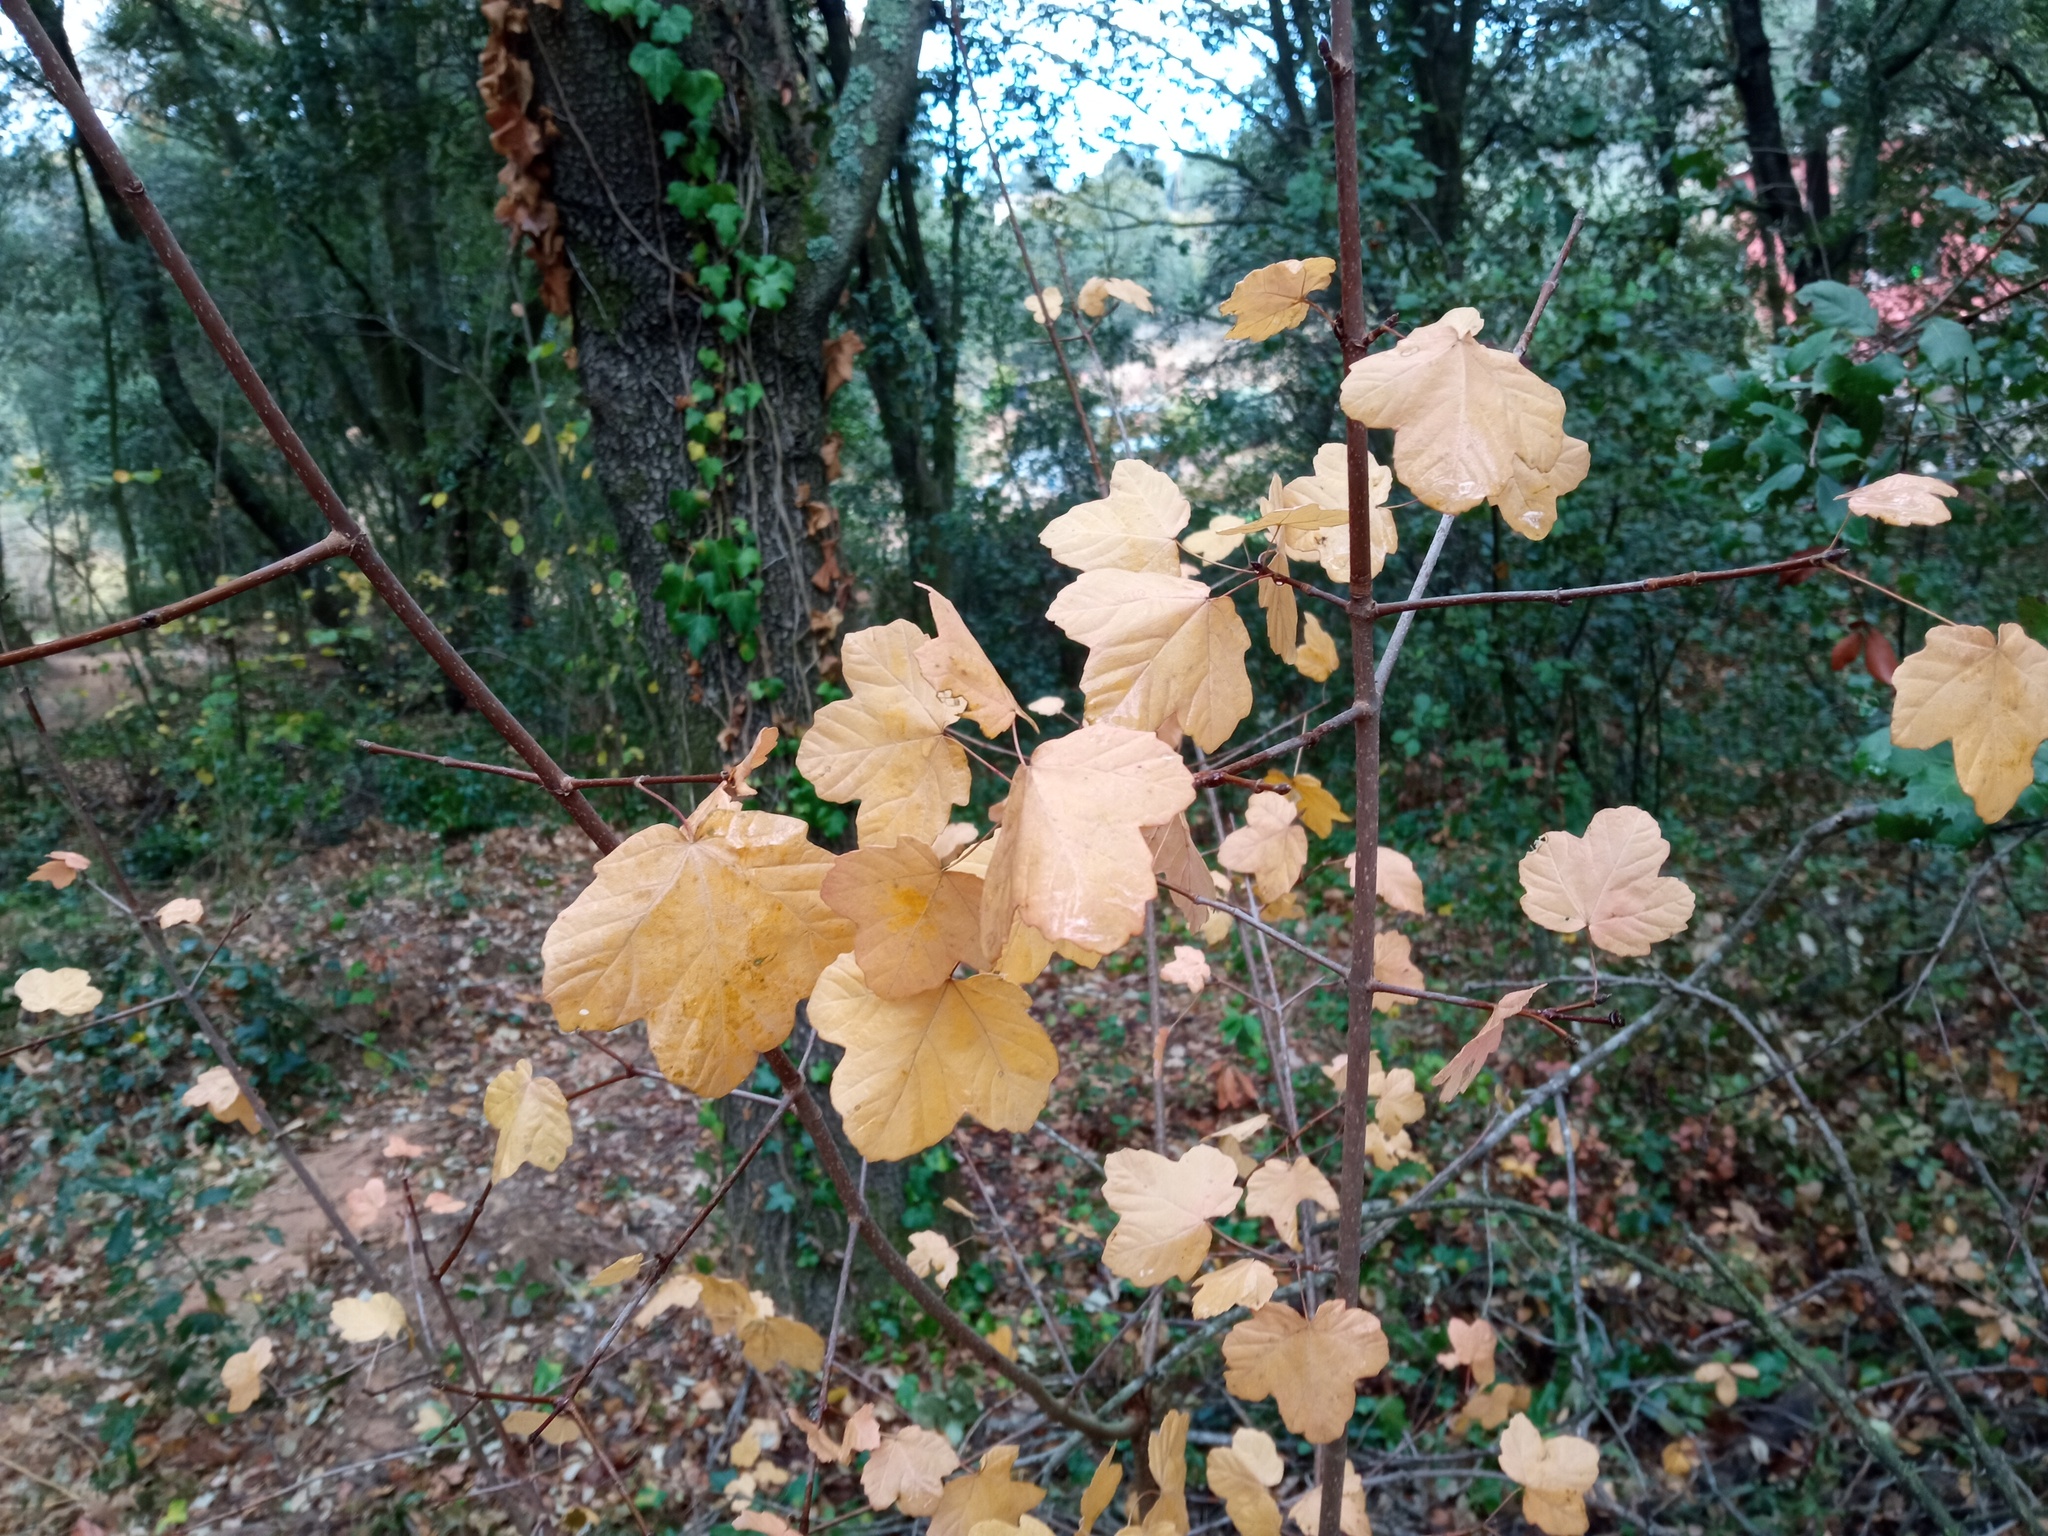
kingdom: Plantae
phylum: Tracheophyta
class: Magnoliopsida
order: Sapindales
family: Sapindaceae
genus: Acer
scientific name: Acer opalus
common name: Italian maple
